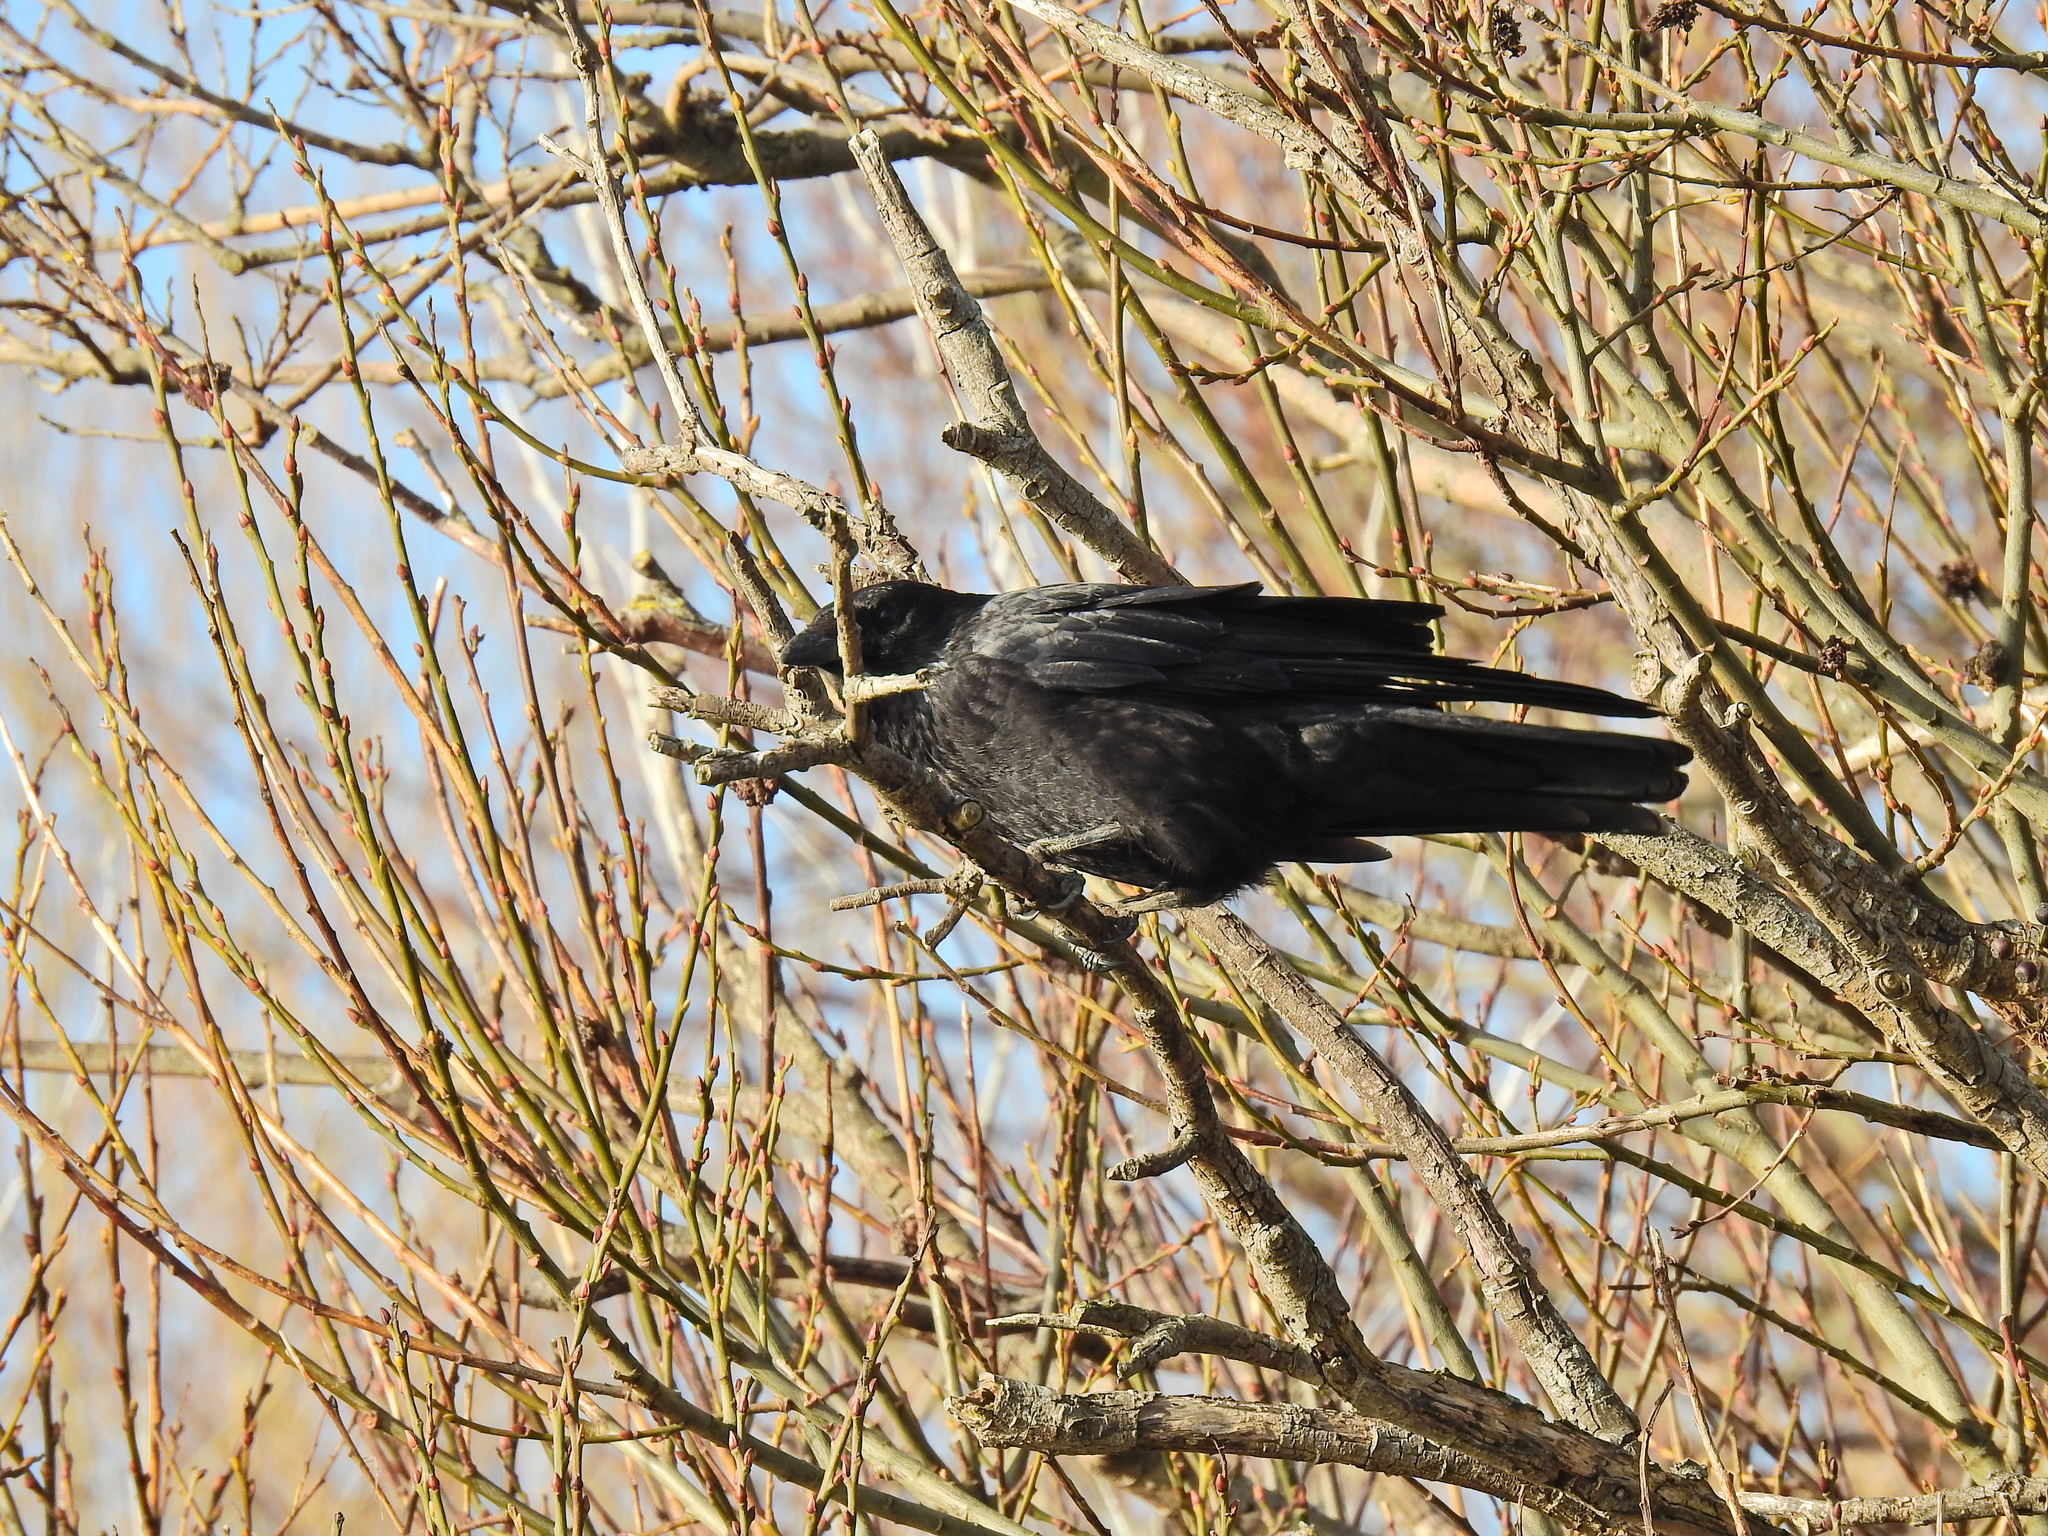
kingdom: Animalia
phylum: Chordata
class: Aves
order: Passeriformes
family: Corvidae
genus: Corvus
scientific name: Corvus corone
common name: Carrion crow
